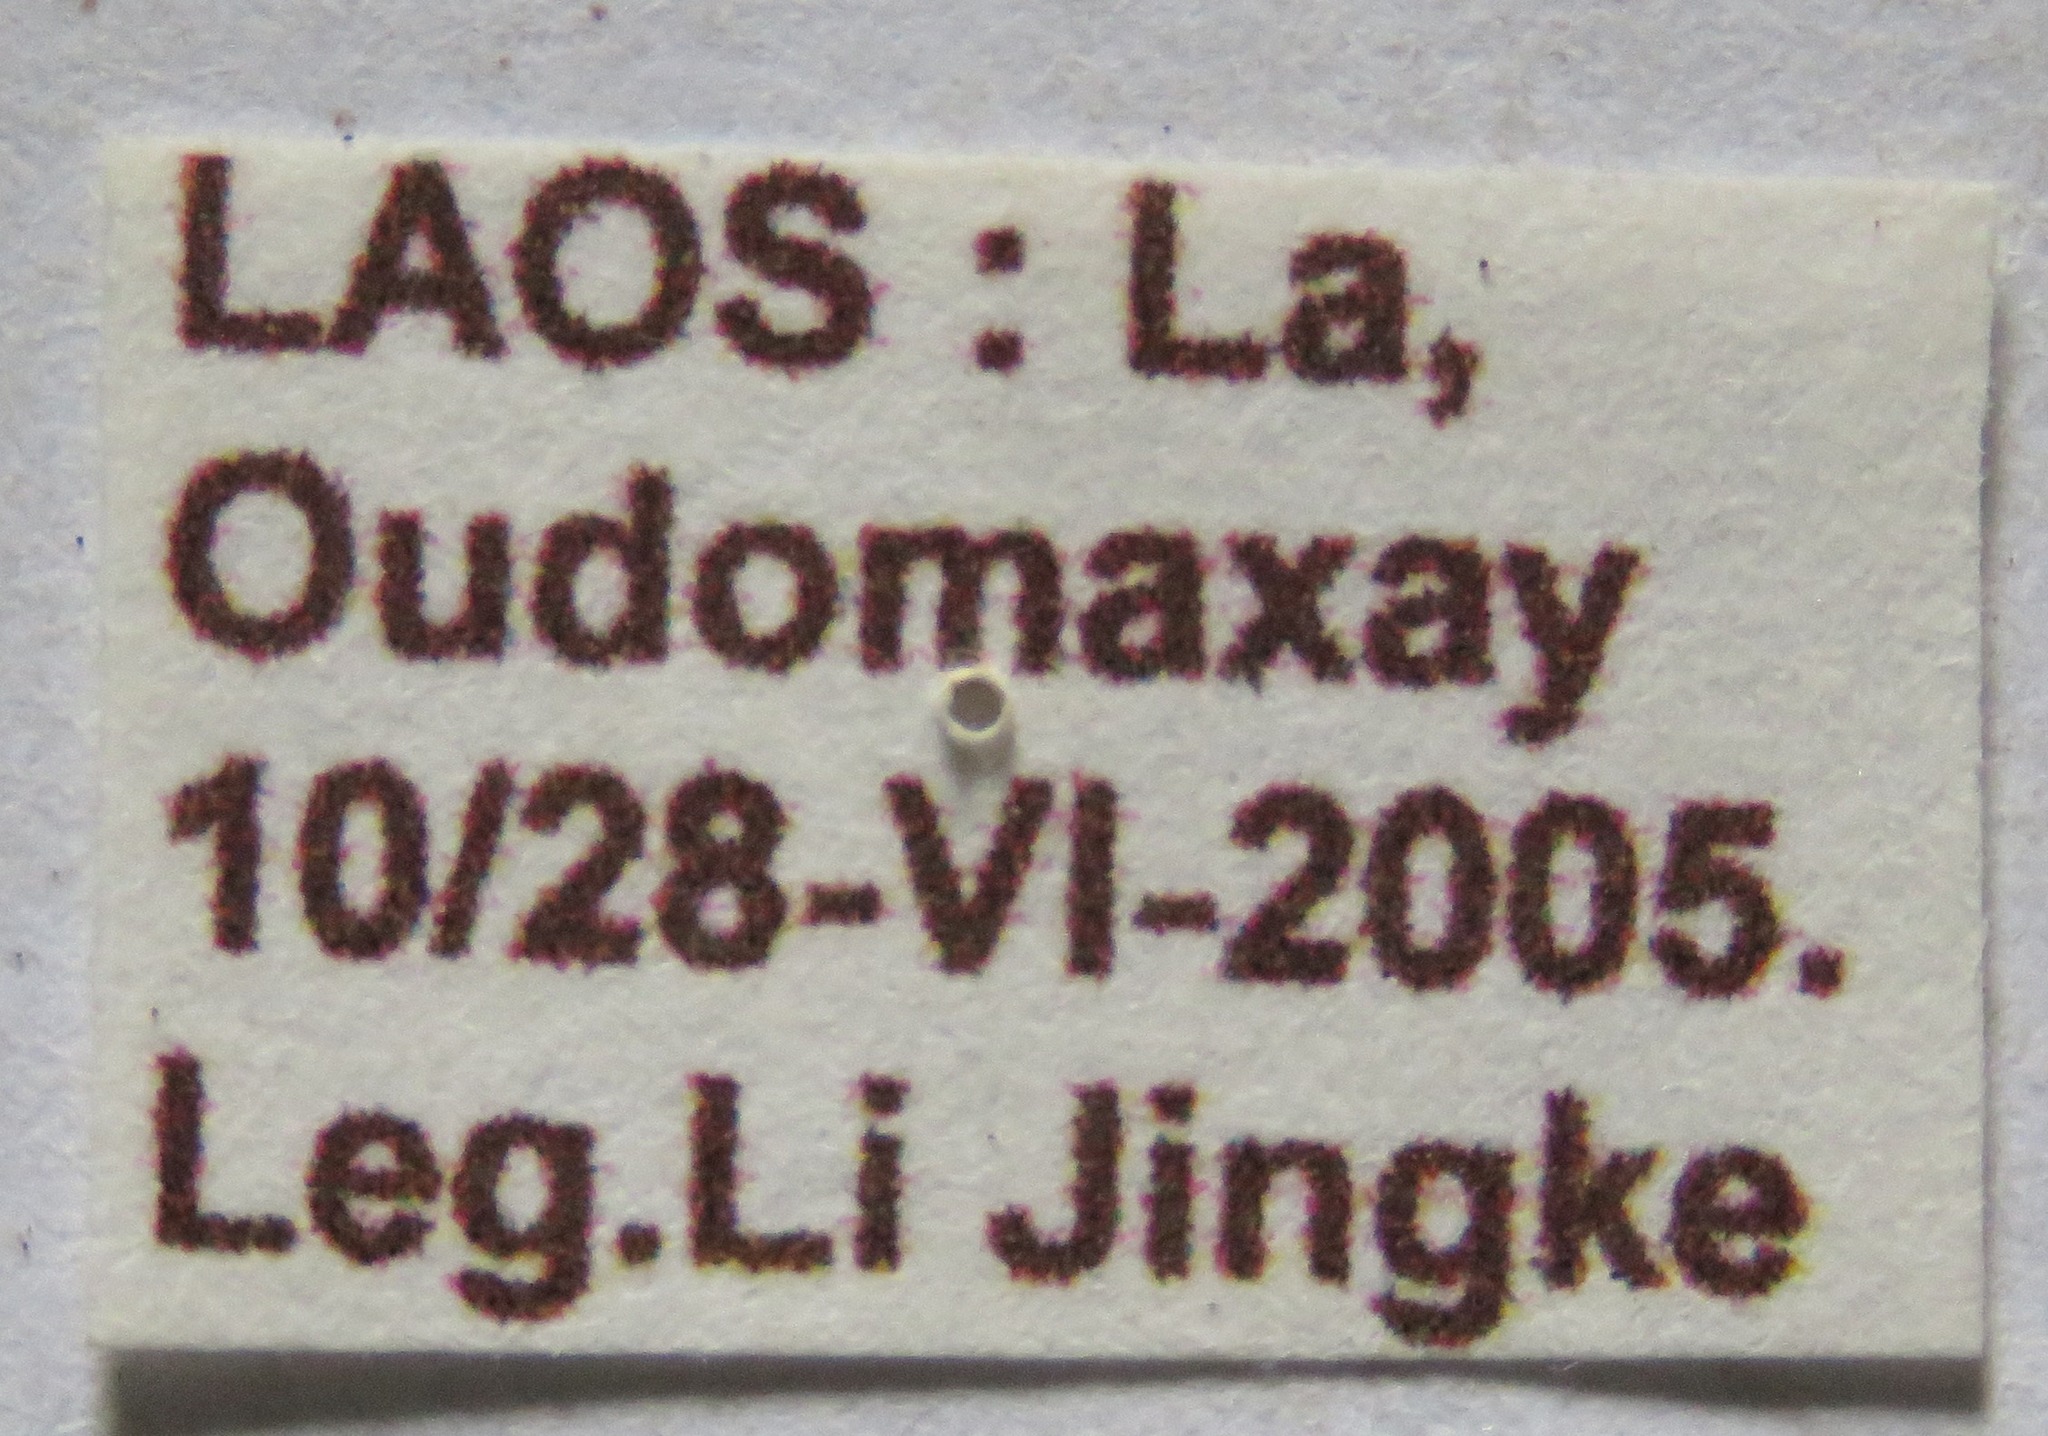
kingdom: Animalia
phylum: Arthropoda
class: Insecta
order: Coleoptera
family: Lucanidae
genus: Prosopocoilus
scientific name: Prosopocoilus jenkinsi
